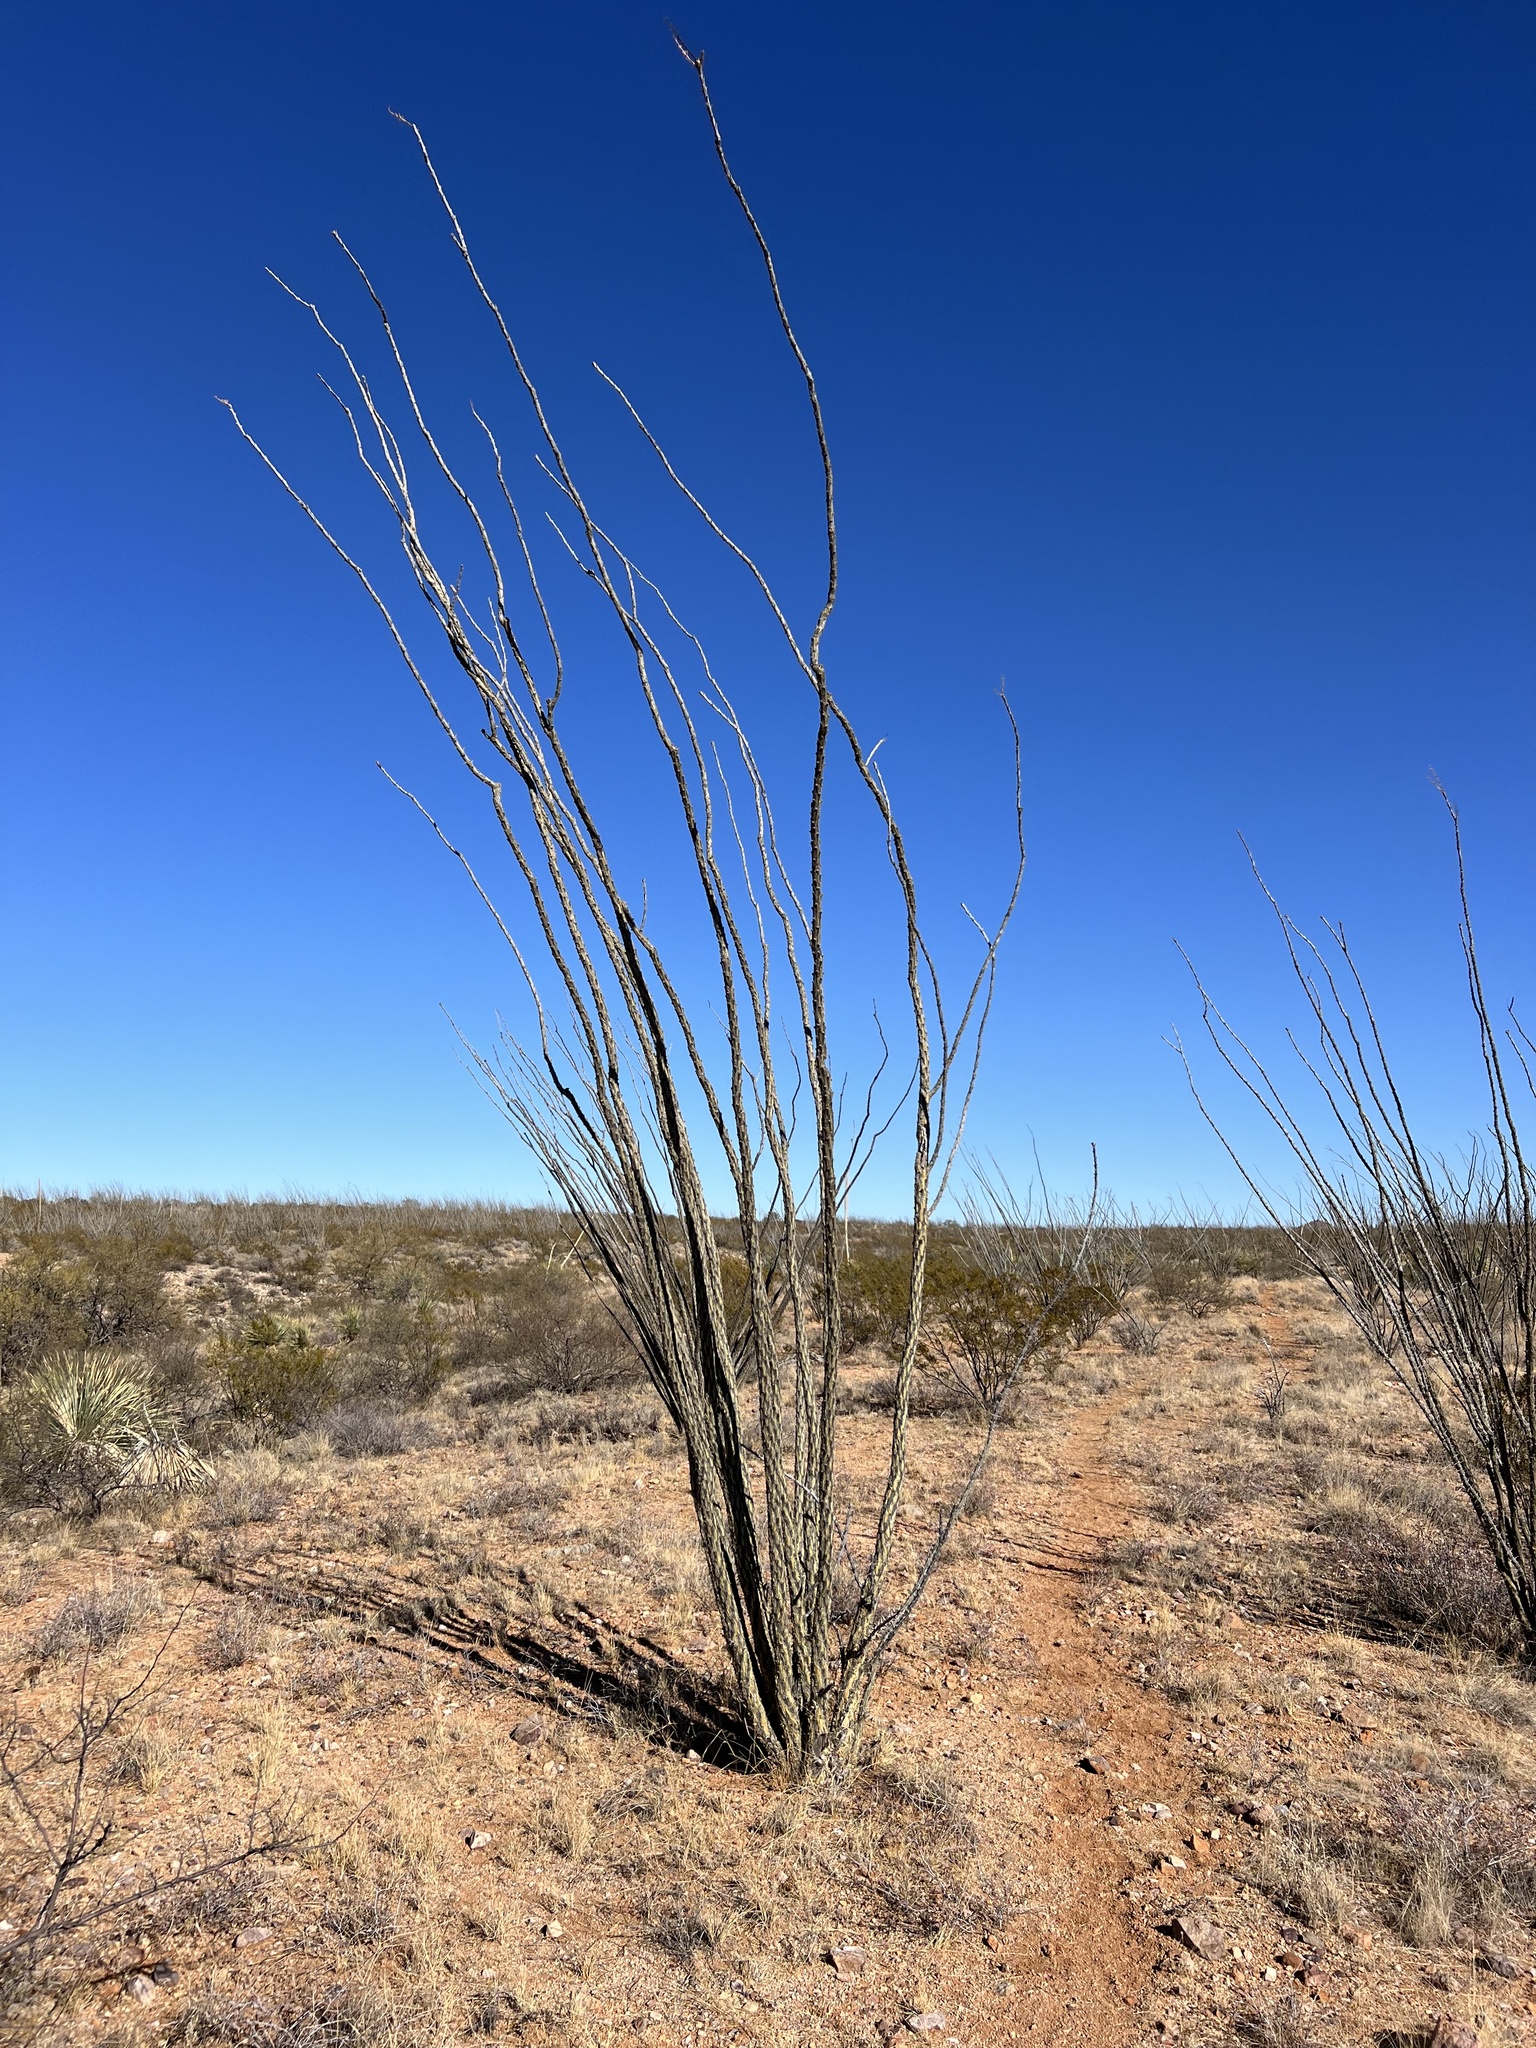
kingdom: Plantae
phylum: Tracheophyta
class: Magnoliopsida
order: Ericales
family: Fouquieriaceae
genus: Fouquieria
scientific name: Fouquieria splendens
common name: Vine-cactus
